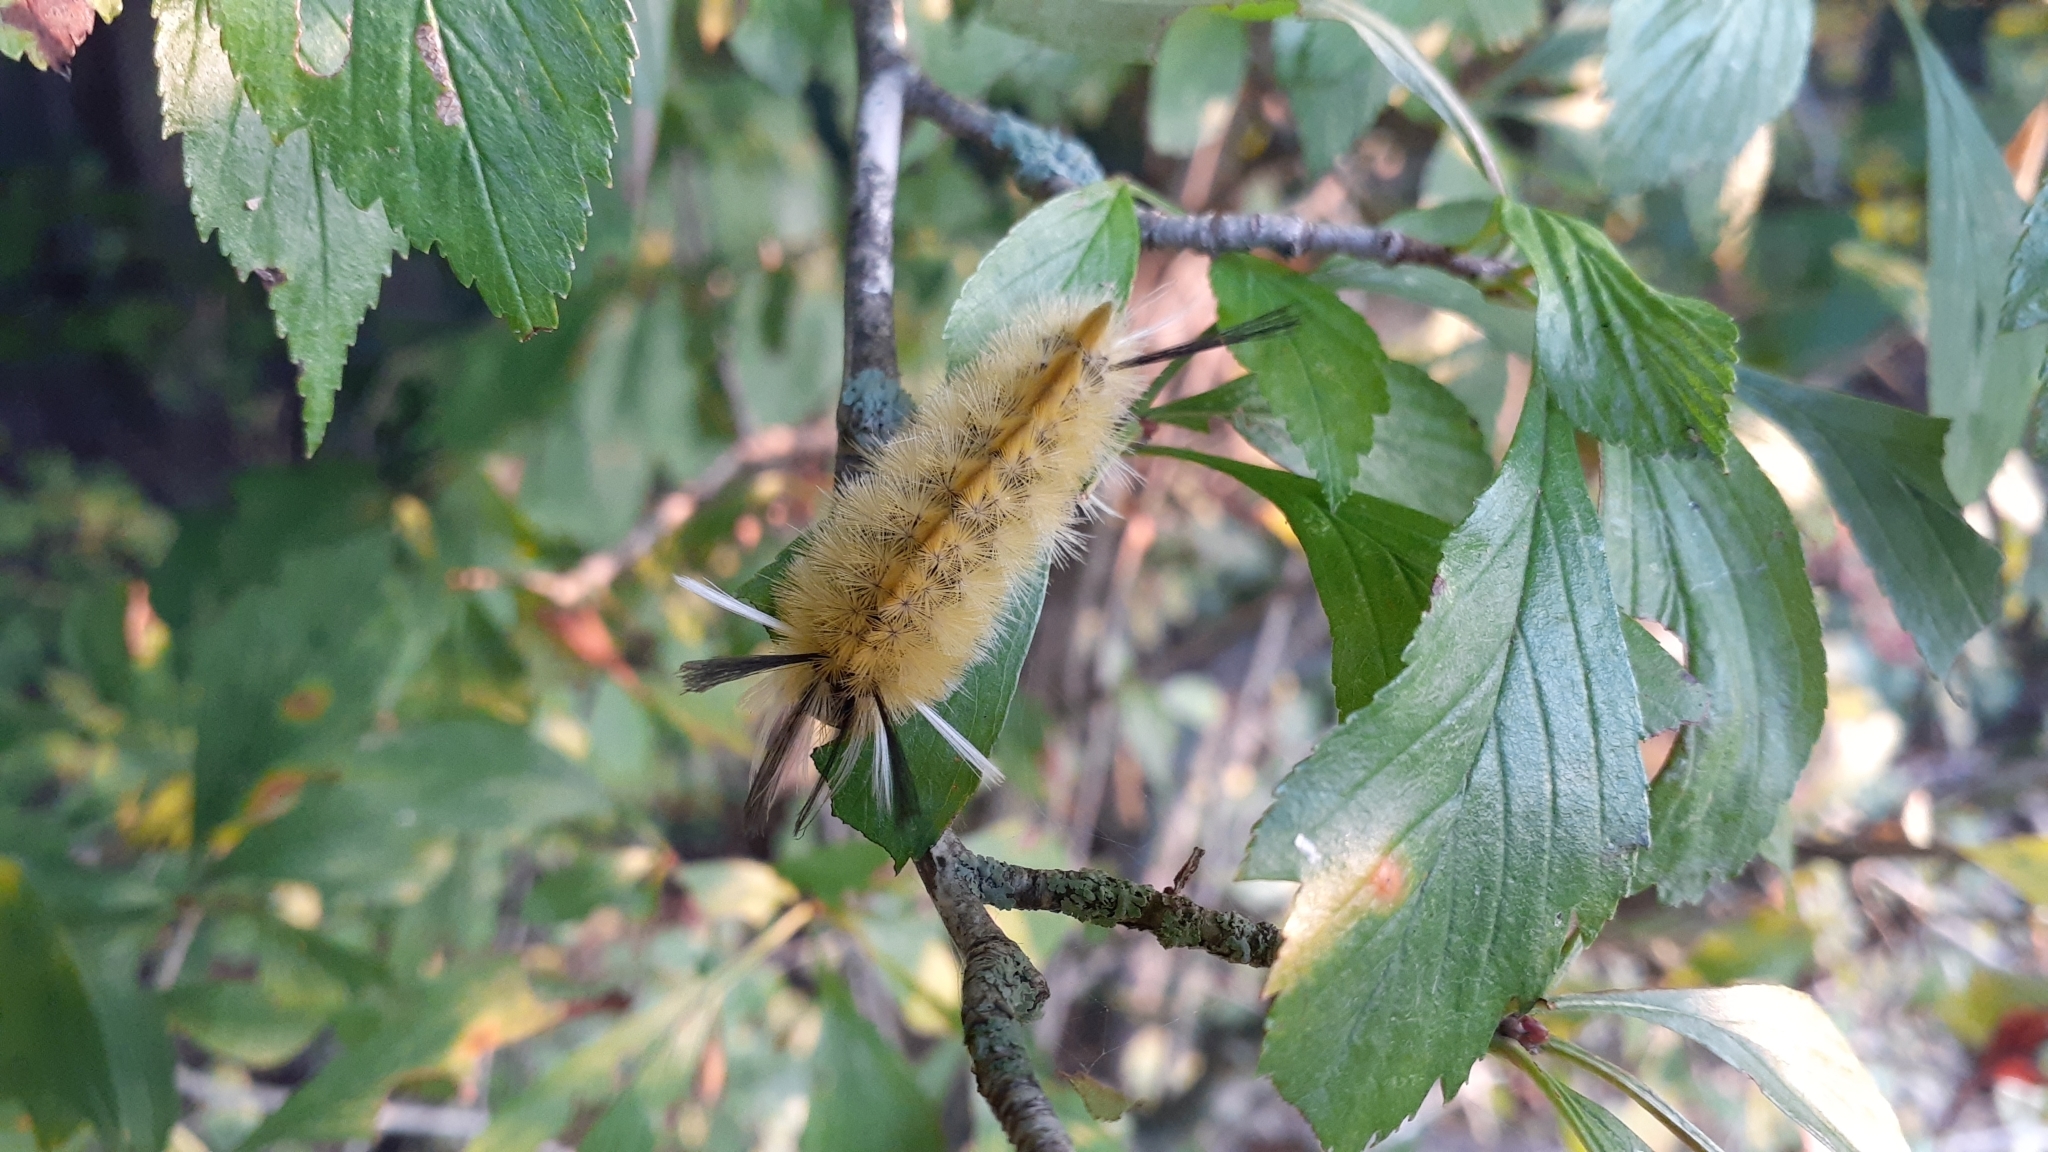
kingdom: Animalia
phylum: Arthropoda
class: Insecta
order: Lepidoptera
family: Erebidae
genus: Halysidota
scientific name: Halysidota tessellaris
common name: Banded tussock moth
